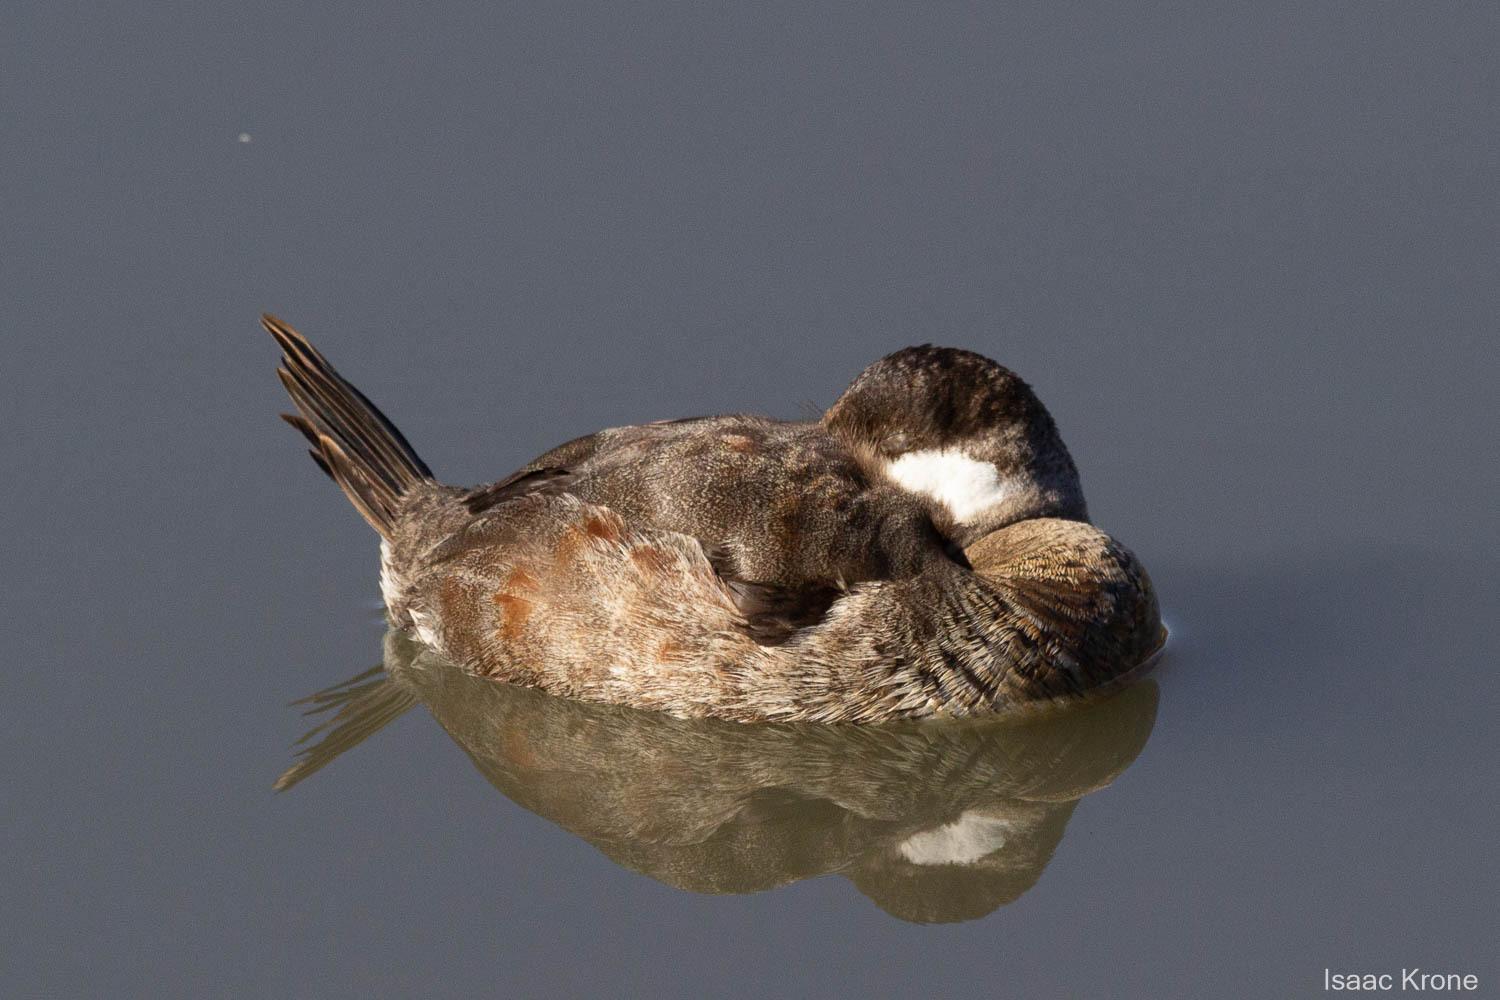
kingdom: Animalia
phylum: Chordata
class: Aves
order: Anseriformes
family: Anatidae
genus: Oxyura
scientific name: Oxyura jamaicensis
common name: Ruddy duck
